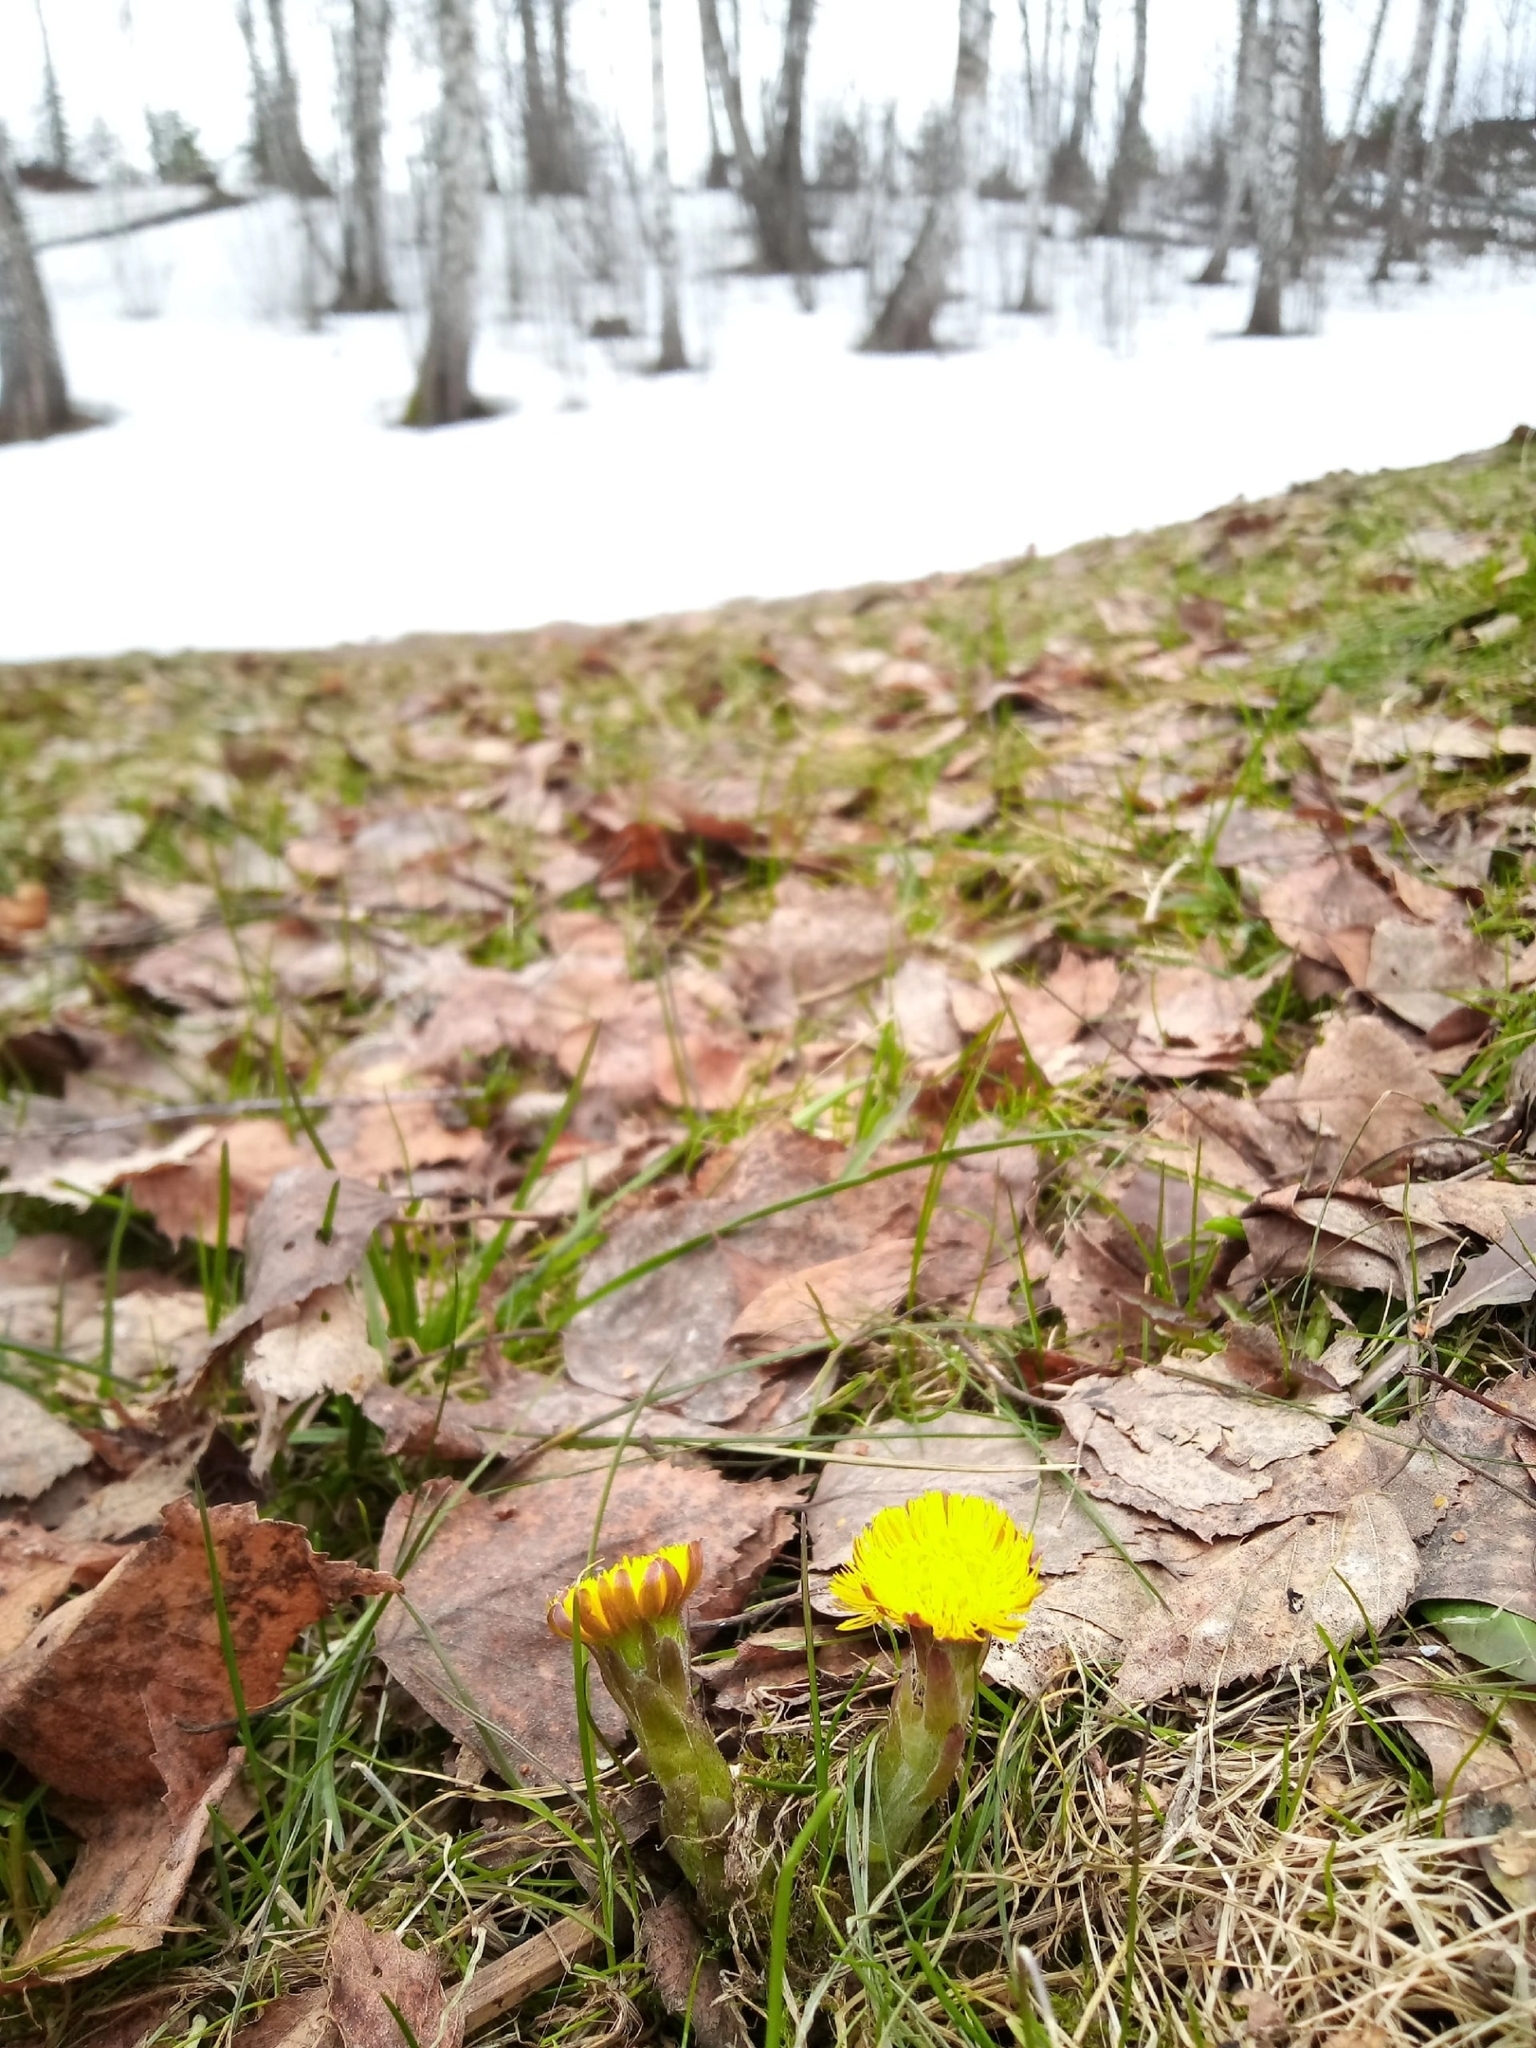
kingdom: Plantae
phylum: Tracheophyta
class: Magnoliopsida
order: Asterales
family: Asteraceae
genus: Tussilago
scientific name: Tussilago farfara
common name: Coltsfoot
